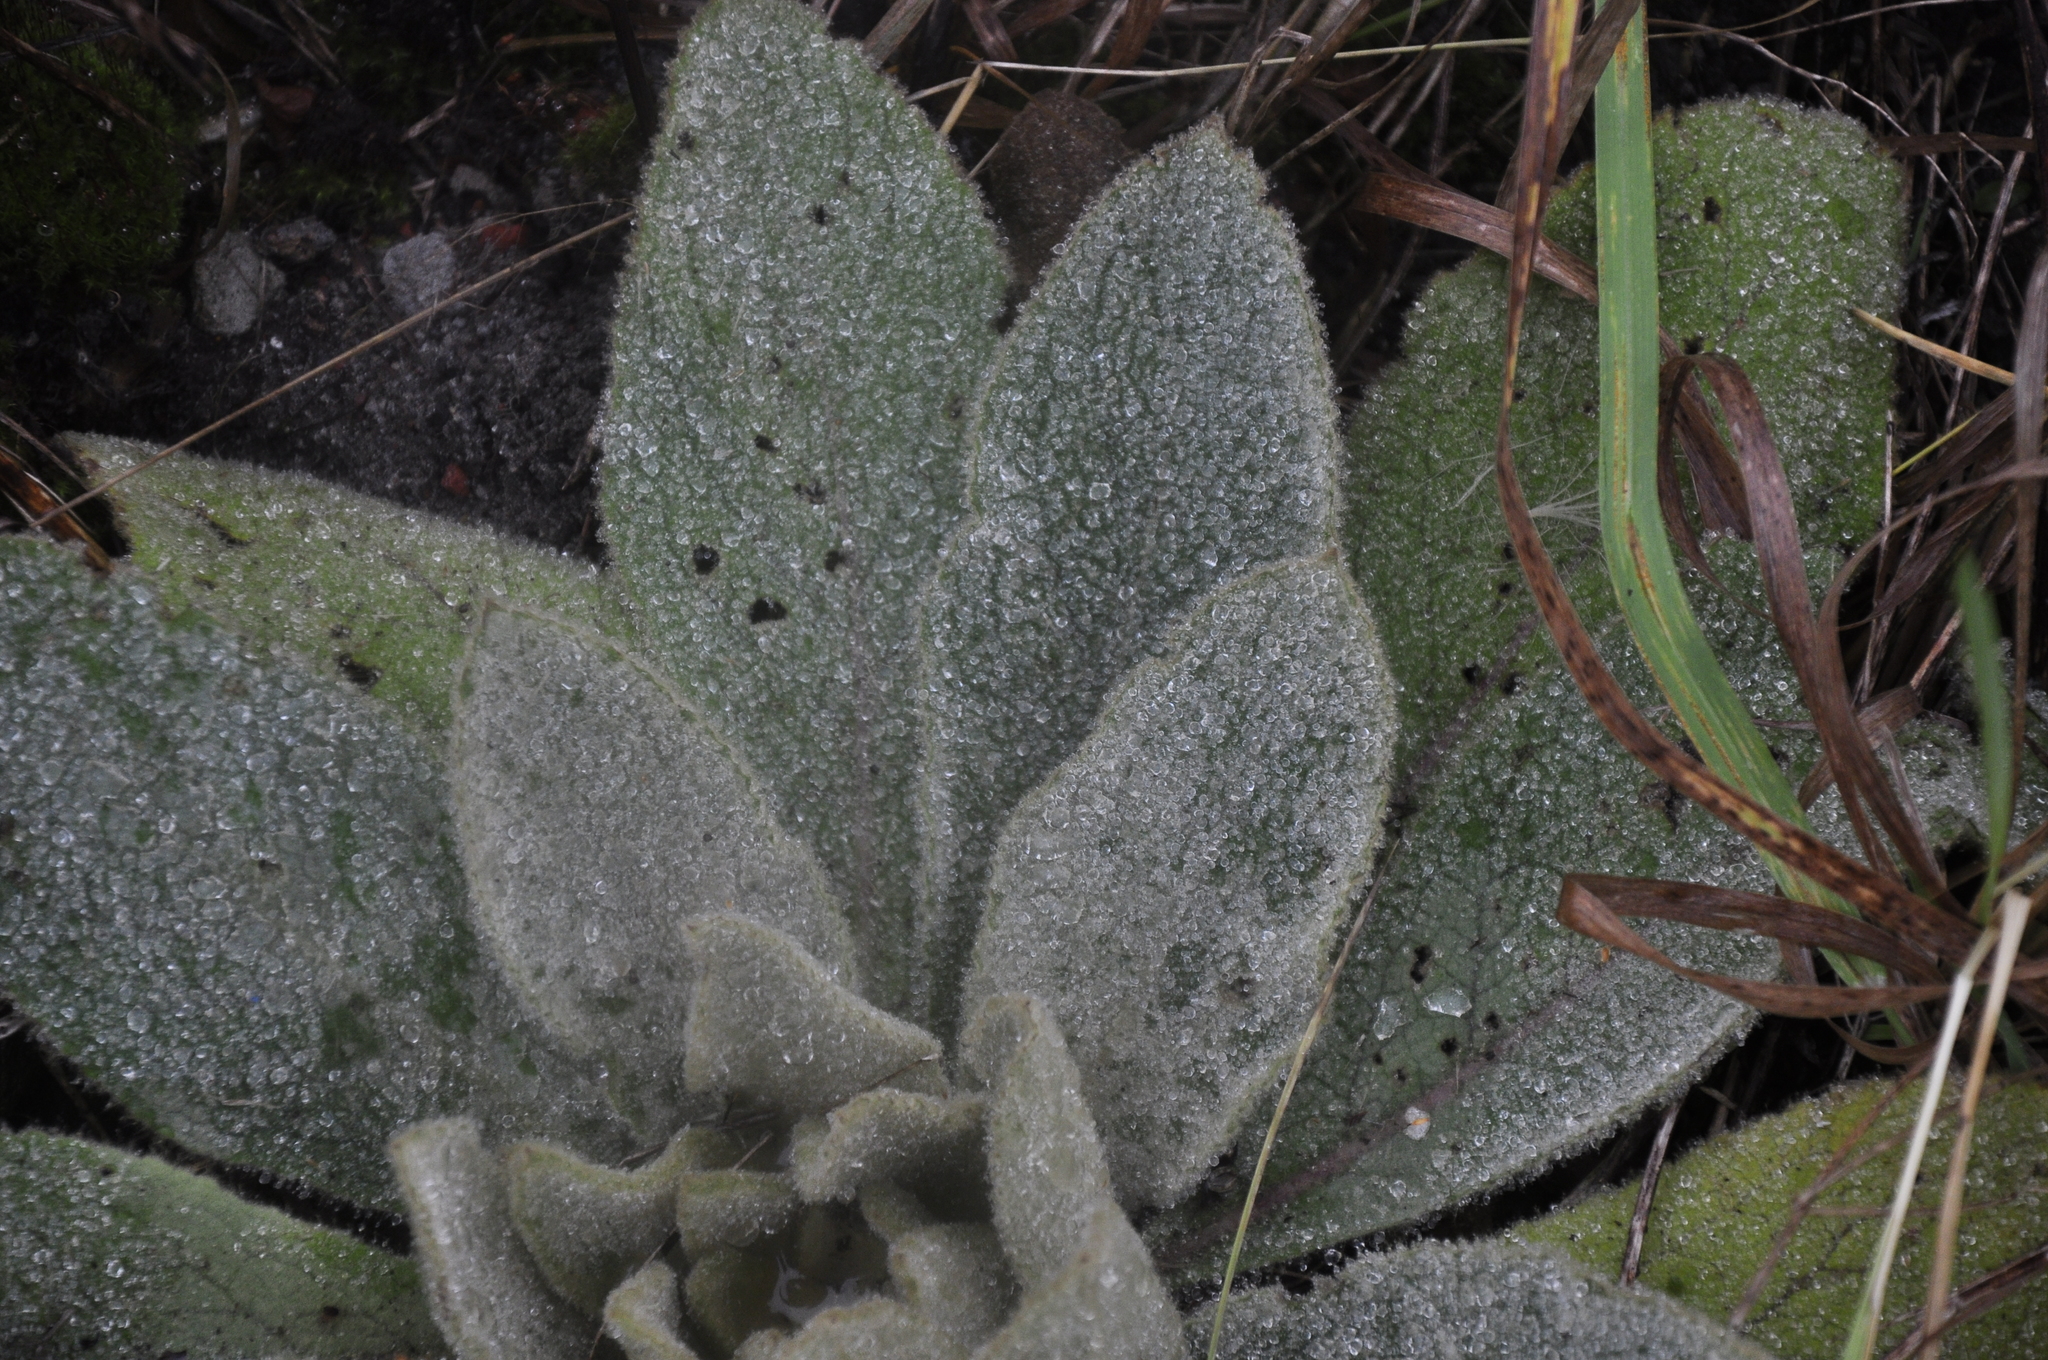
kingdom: Plantae
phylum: Tracheophyta
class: Magnoliopsida
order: Lamiales
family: Scrophulariaceae
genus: Verbascum
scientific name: Verbascum thapsus
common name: Common mullein
